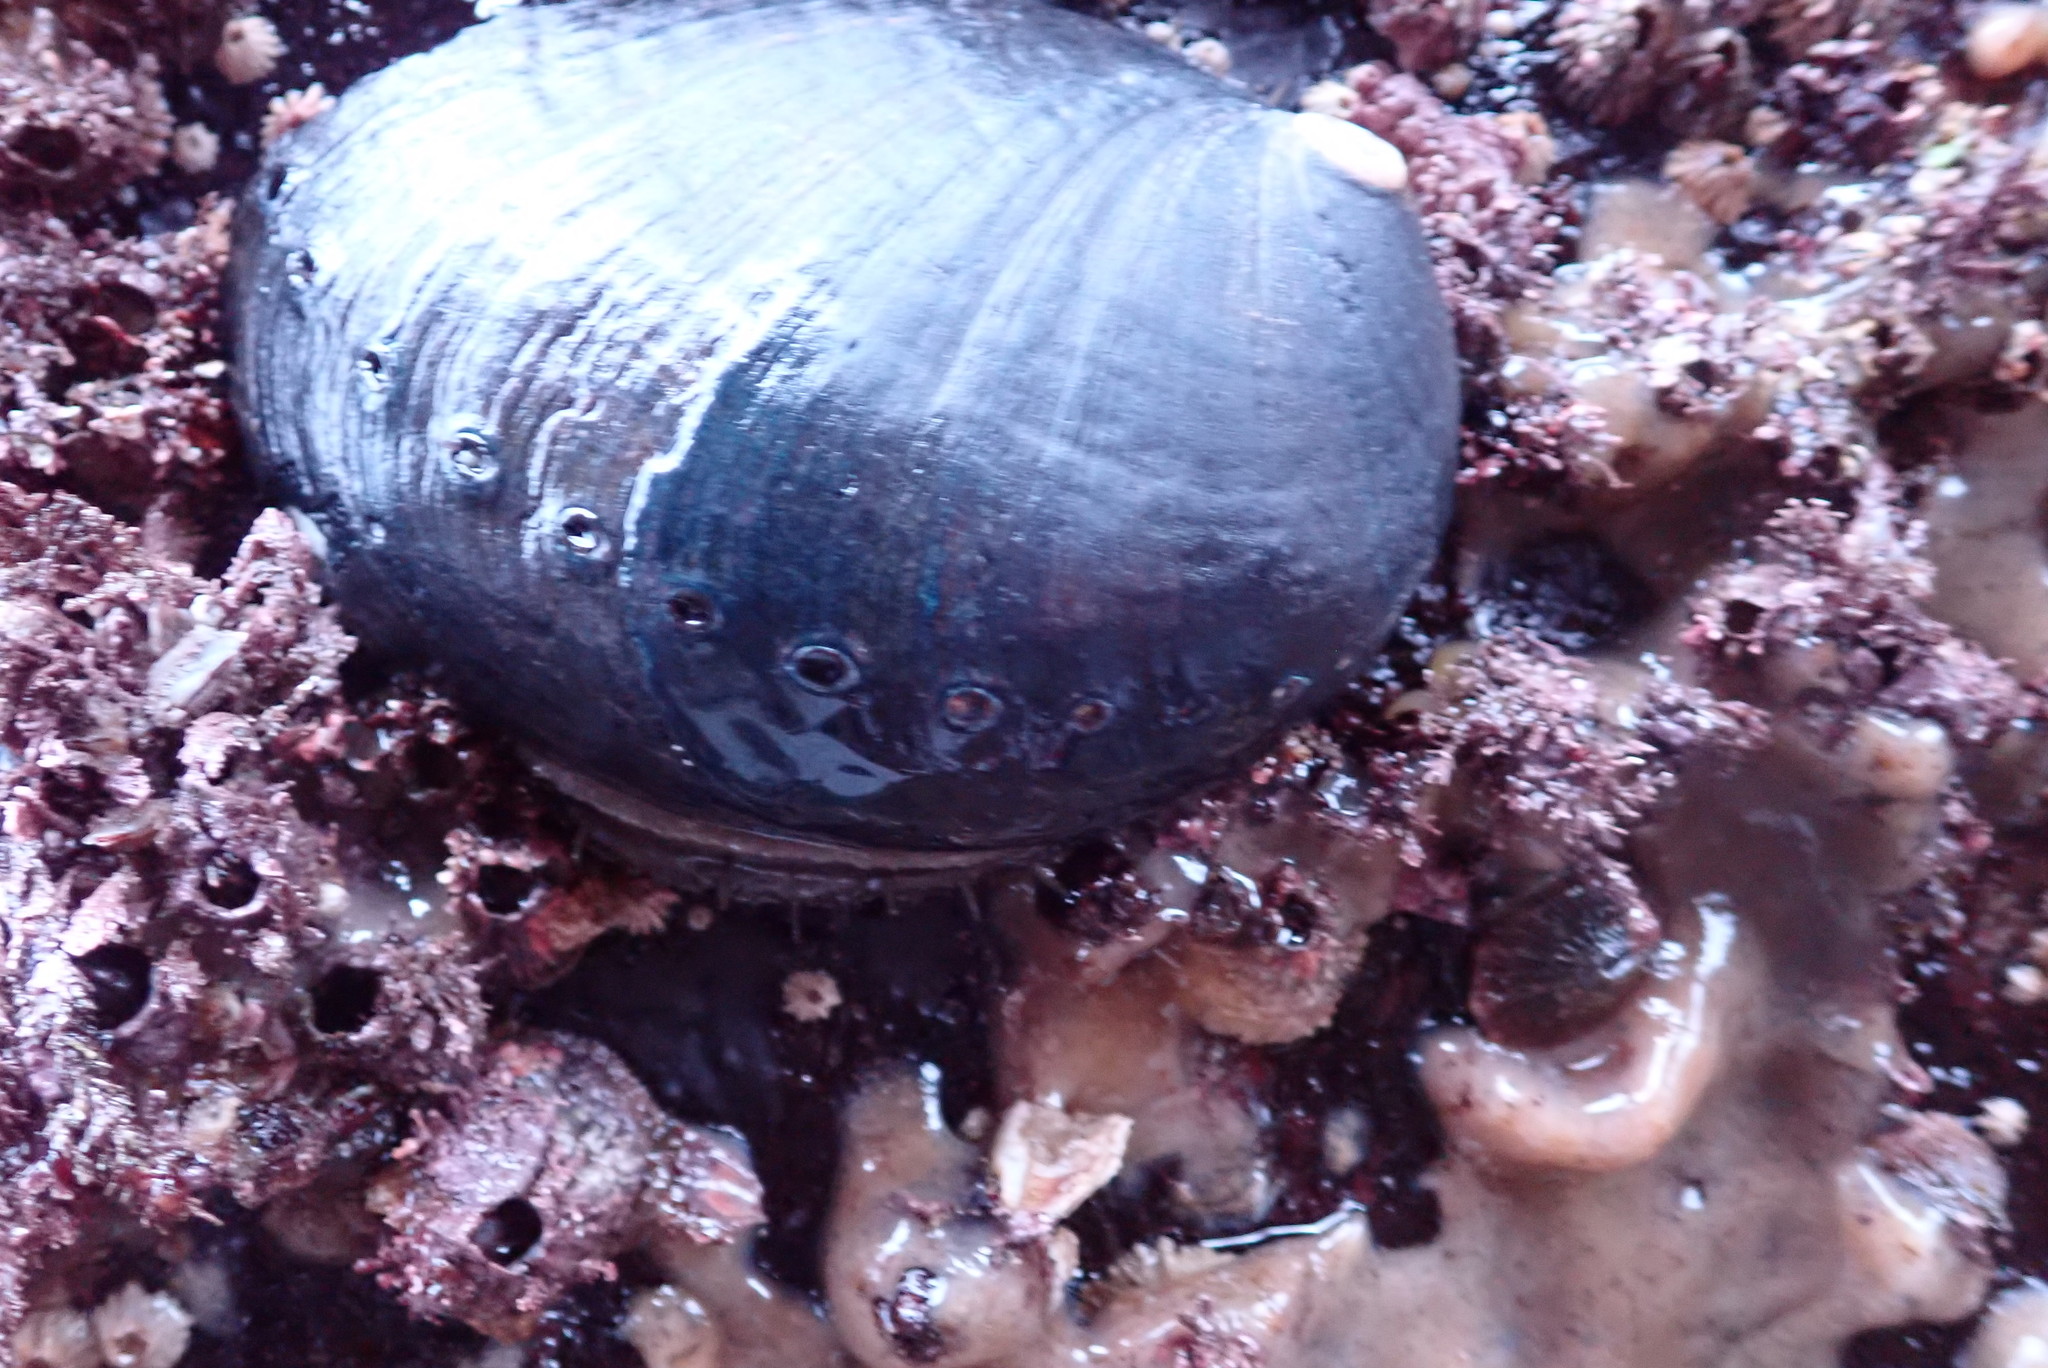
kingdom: Animalia
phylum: Mollusca
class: Gastropoda
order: Lepetellida
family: Haliotidae
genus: Haliotis
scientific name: Haliotis cracherodii
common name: Black abalone
